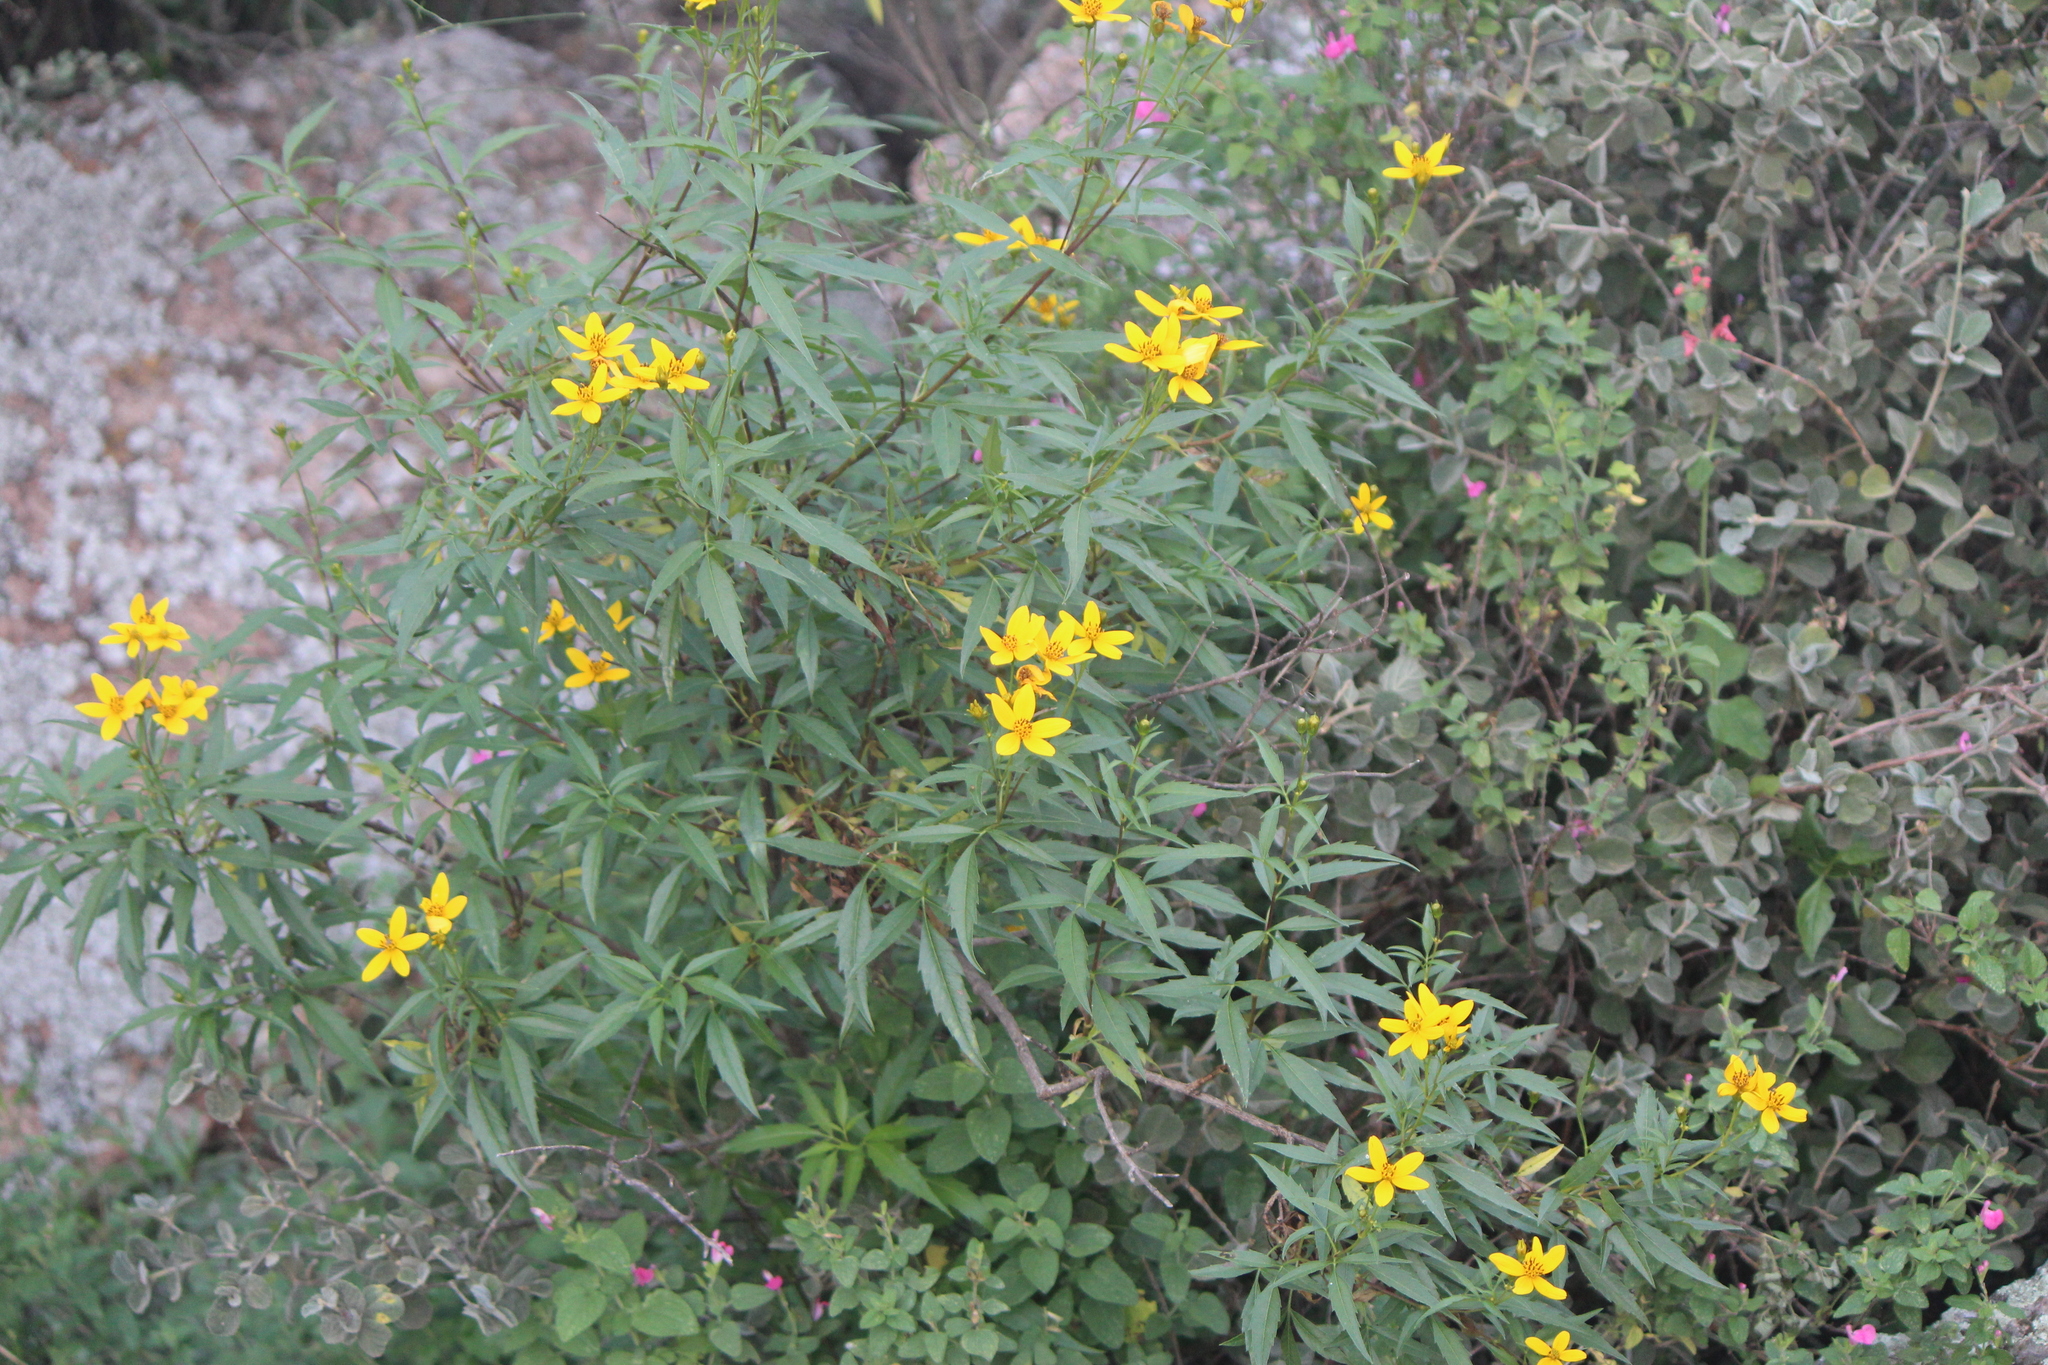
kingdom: Plantae
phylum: Tracheophyta
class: Magnoliopsida
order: Asterales
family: Asteraceae
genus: Electranthera
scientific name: Electranthera mutica
